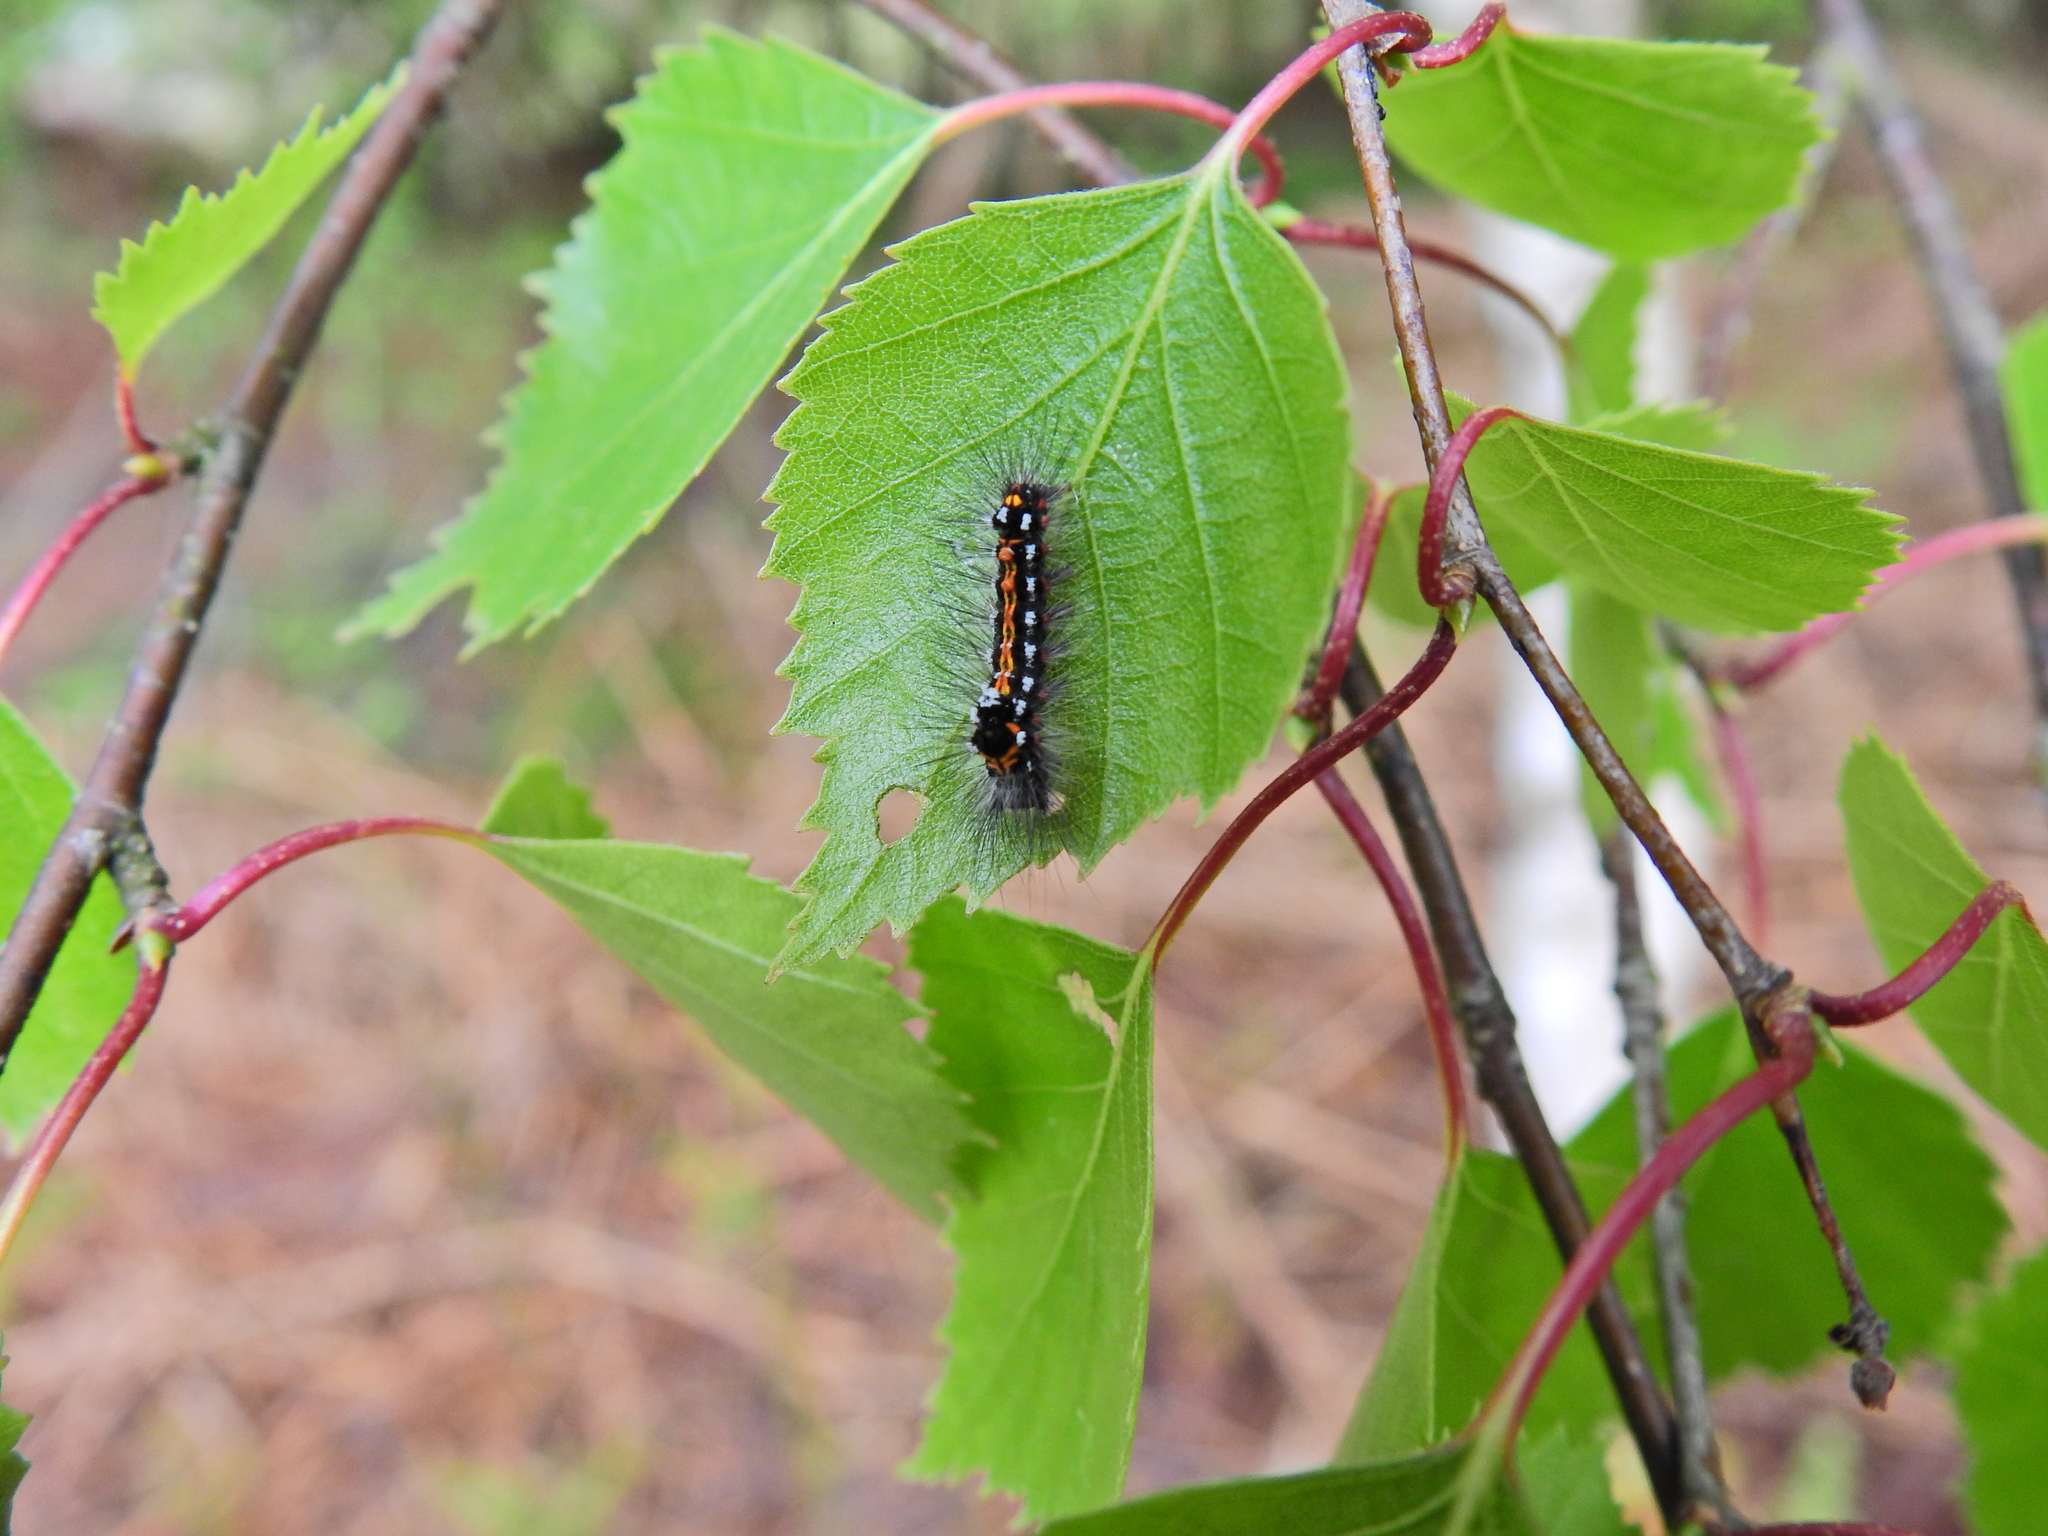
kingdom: Animalia
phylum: Arthropoda
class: Insecta
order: Lepidoptera
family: Erebidae
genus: Sphrageidus
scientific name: Sphrageidus similis
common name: Yellow-tail
